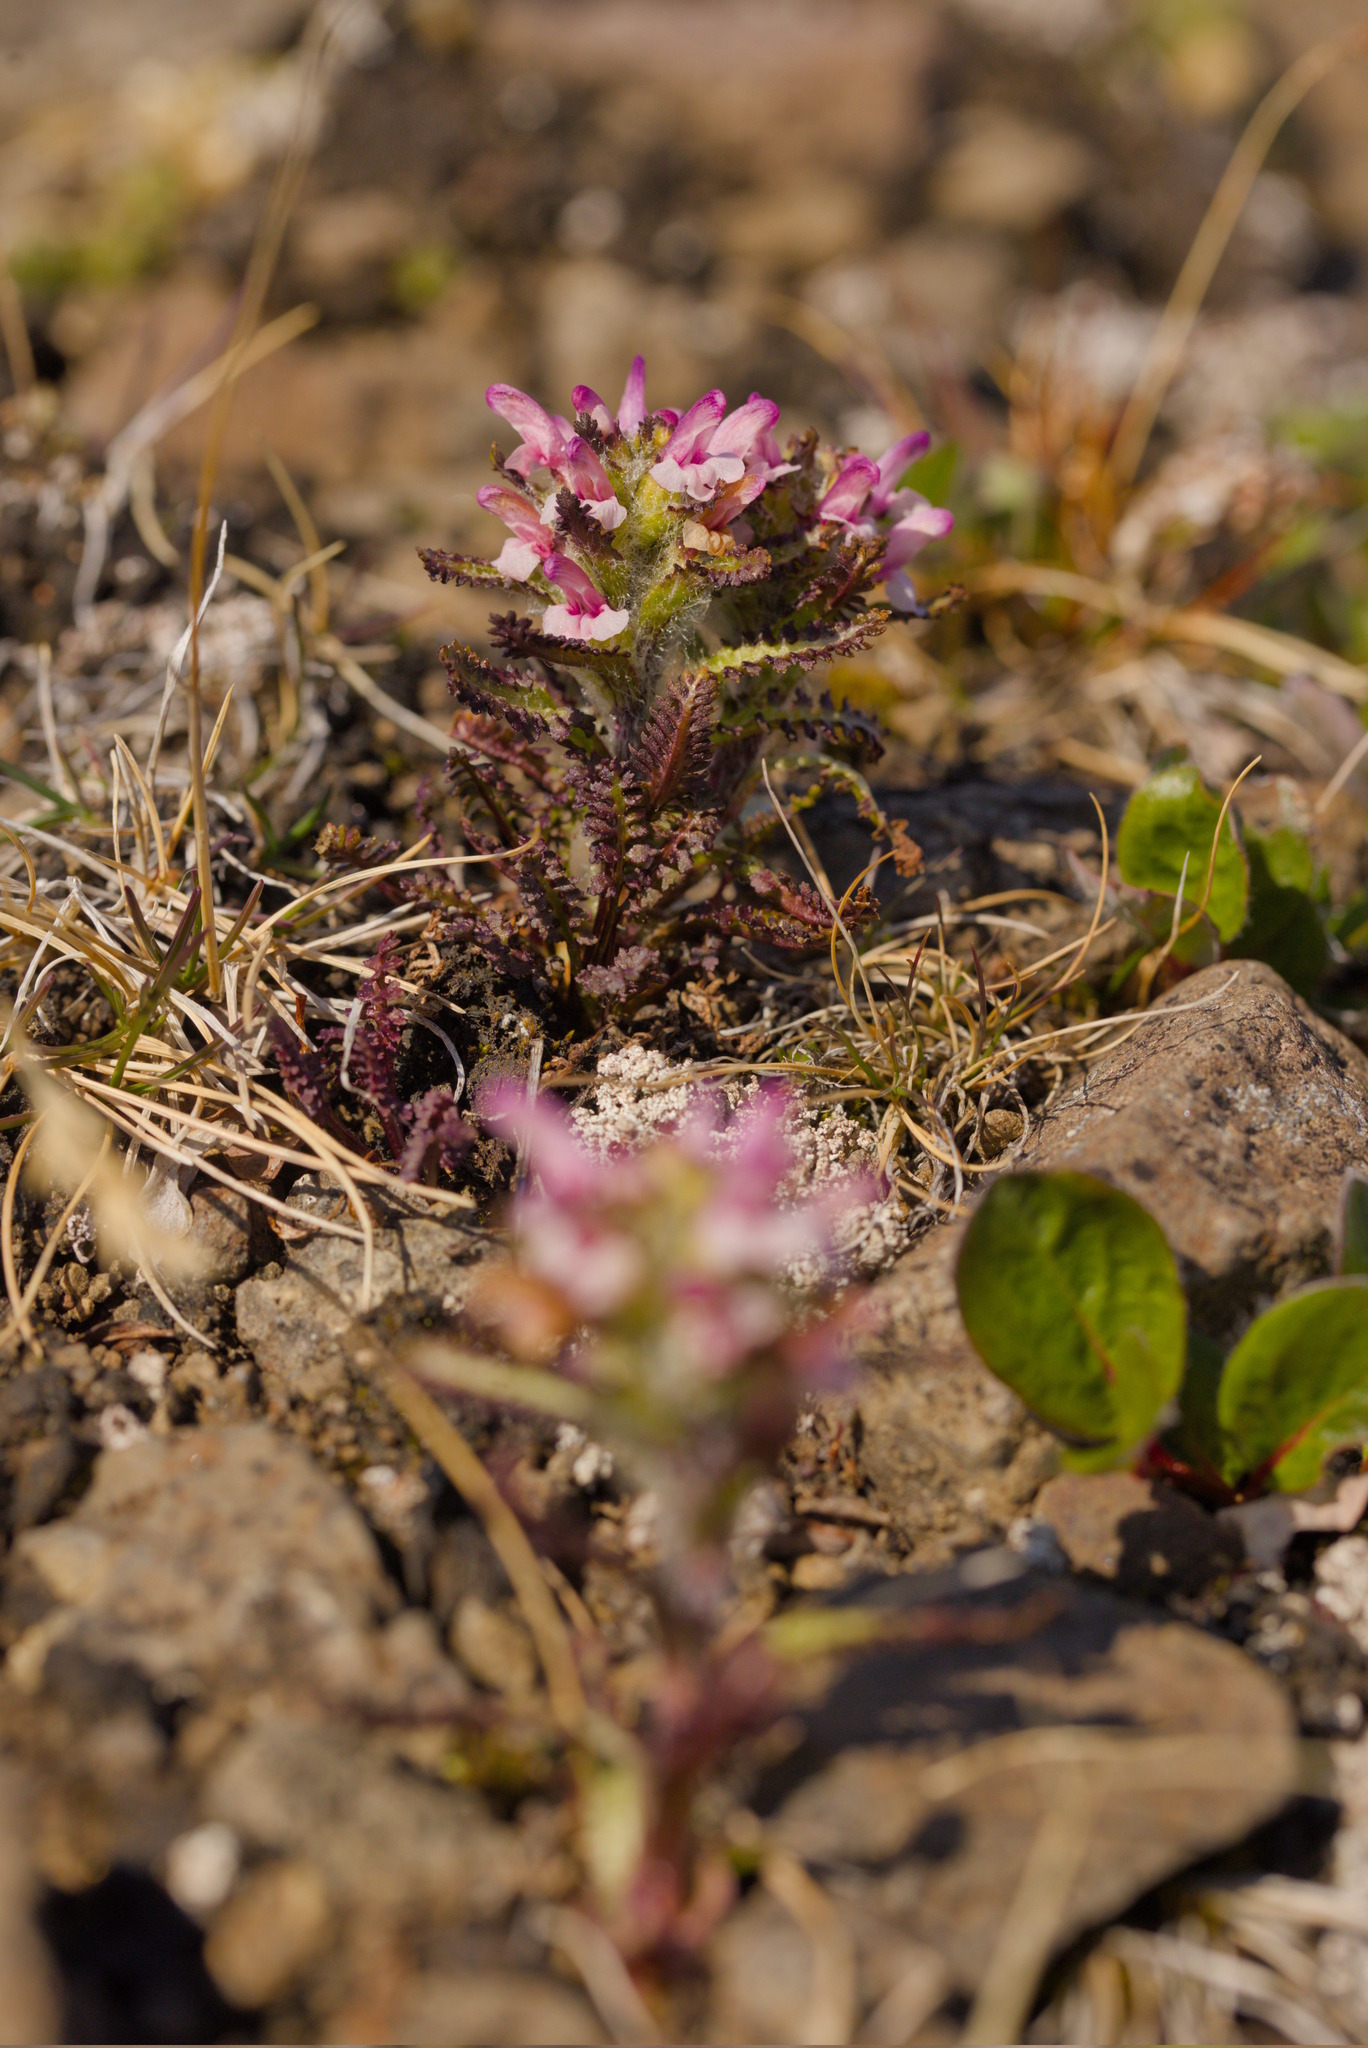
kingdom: Plantae
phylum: Tracheophyta
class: Magnoliopsida
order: Lamiales
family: Orobanchaceae
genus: Pedicularis
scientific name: Pedicularis hirsuta
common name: Hairy lousewort
